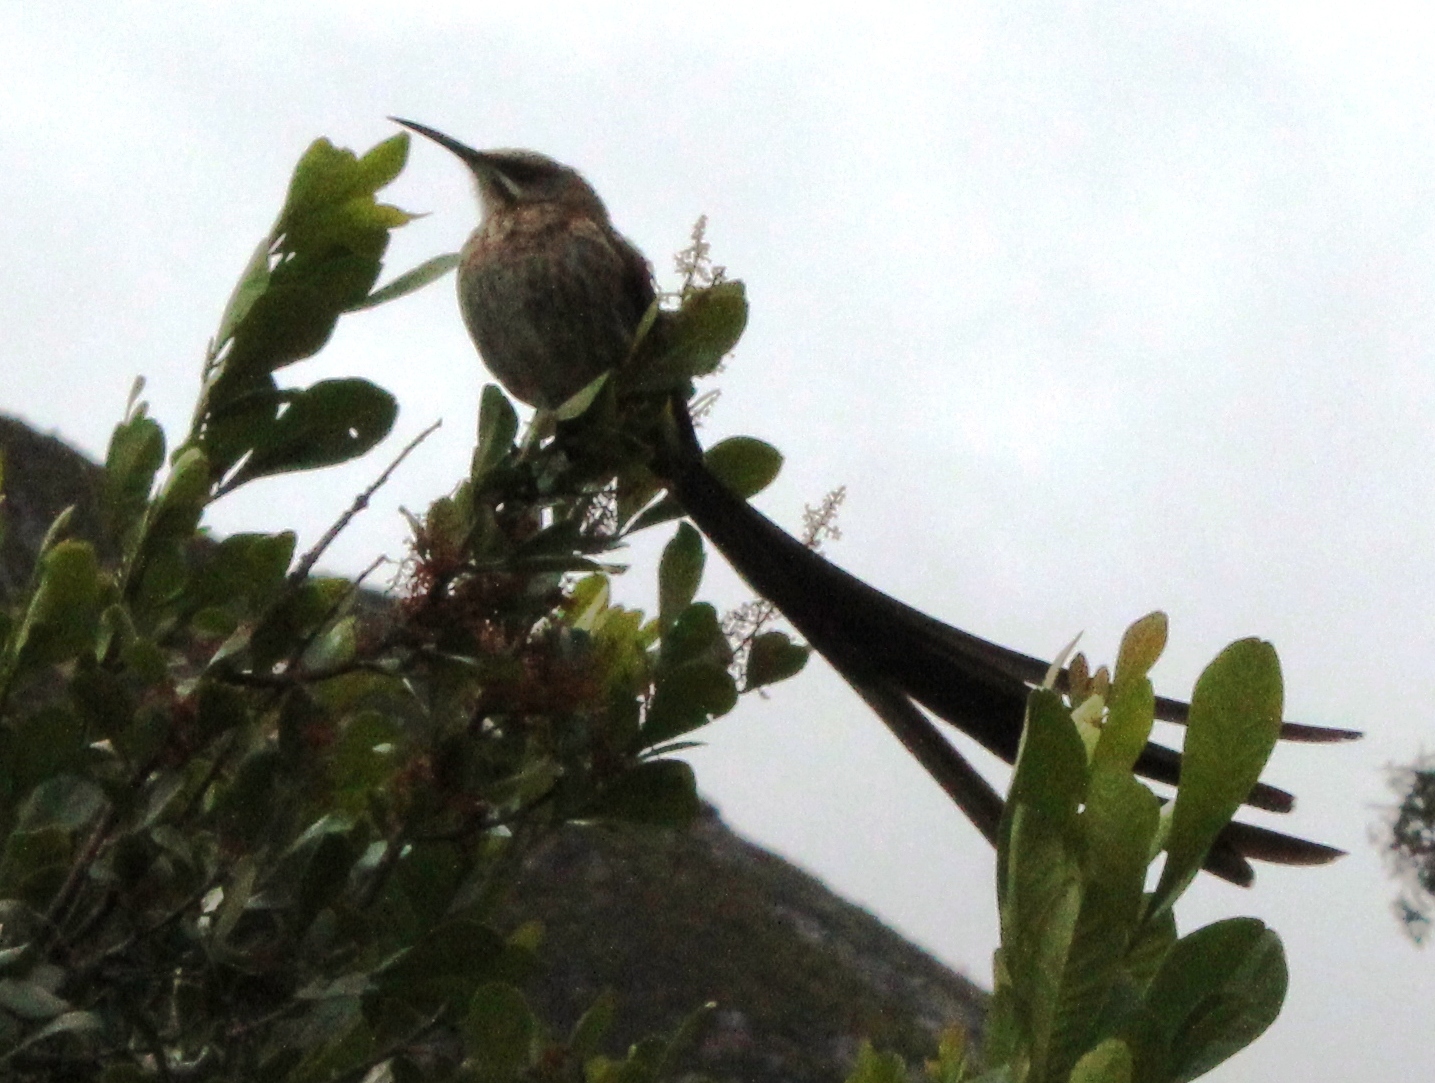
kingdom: Animalia
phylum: Chordata
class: Aves
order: Passeriformes
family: Promeropidae
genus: Promerops
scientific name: Promerops cafer
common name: Cape sugarbird
